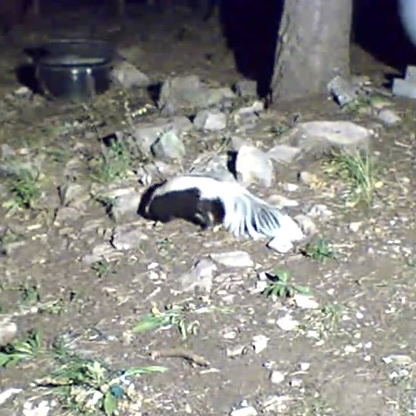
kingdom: Animalia
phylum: Chordata
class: Mammalia
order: Carnivora
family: Mephitidae
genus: Mephitis
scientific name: Mephitis mephitis
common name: Striped skunk
